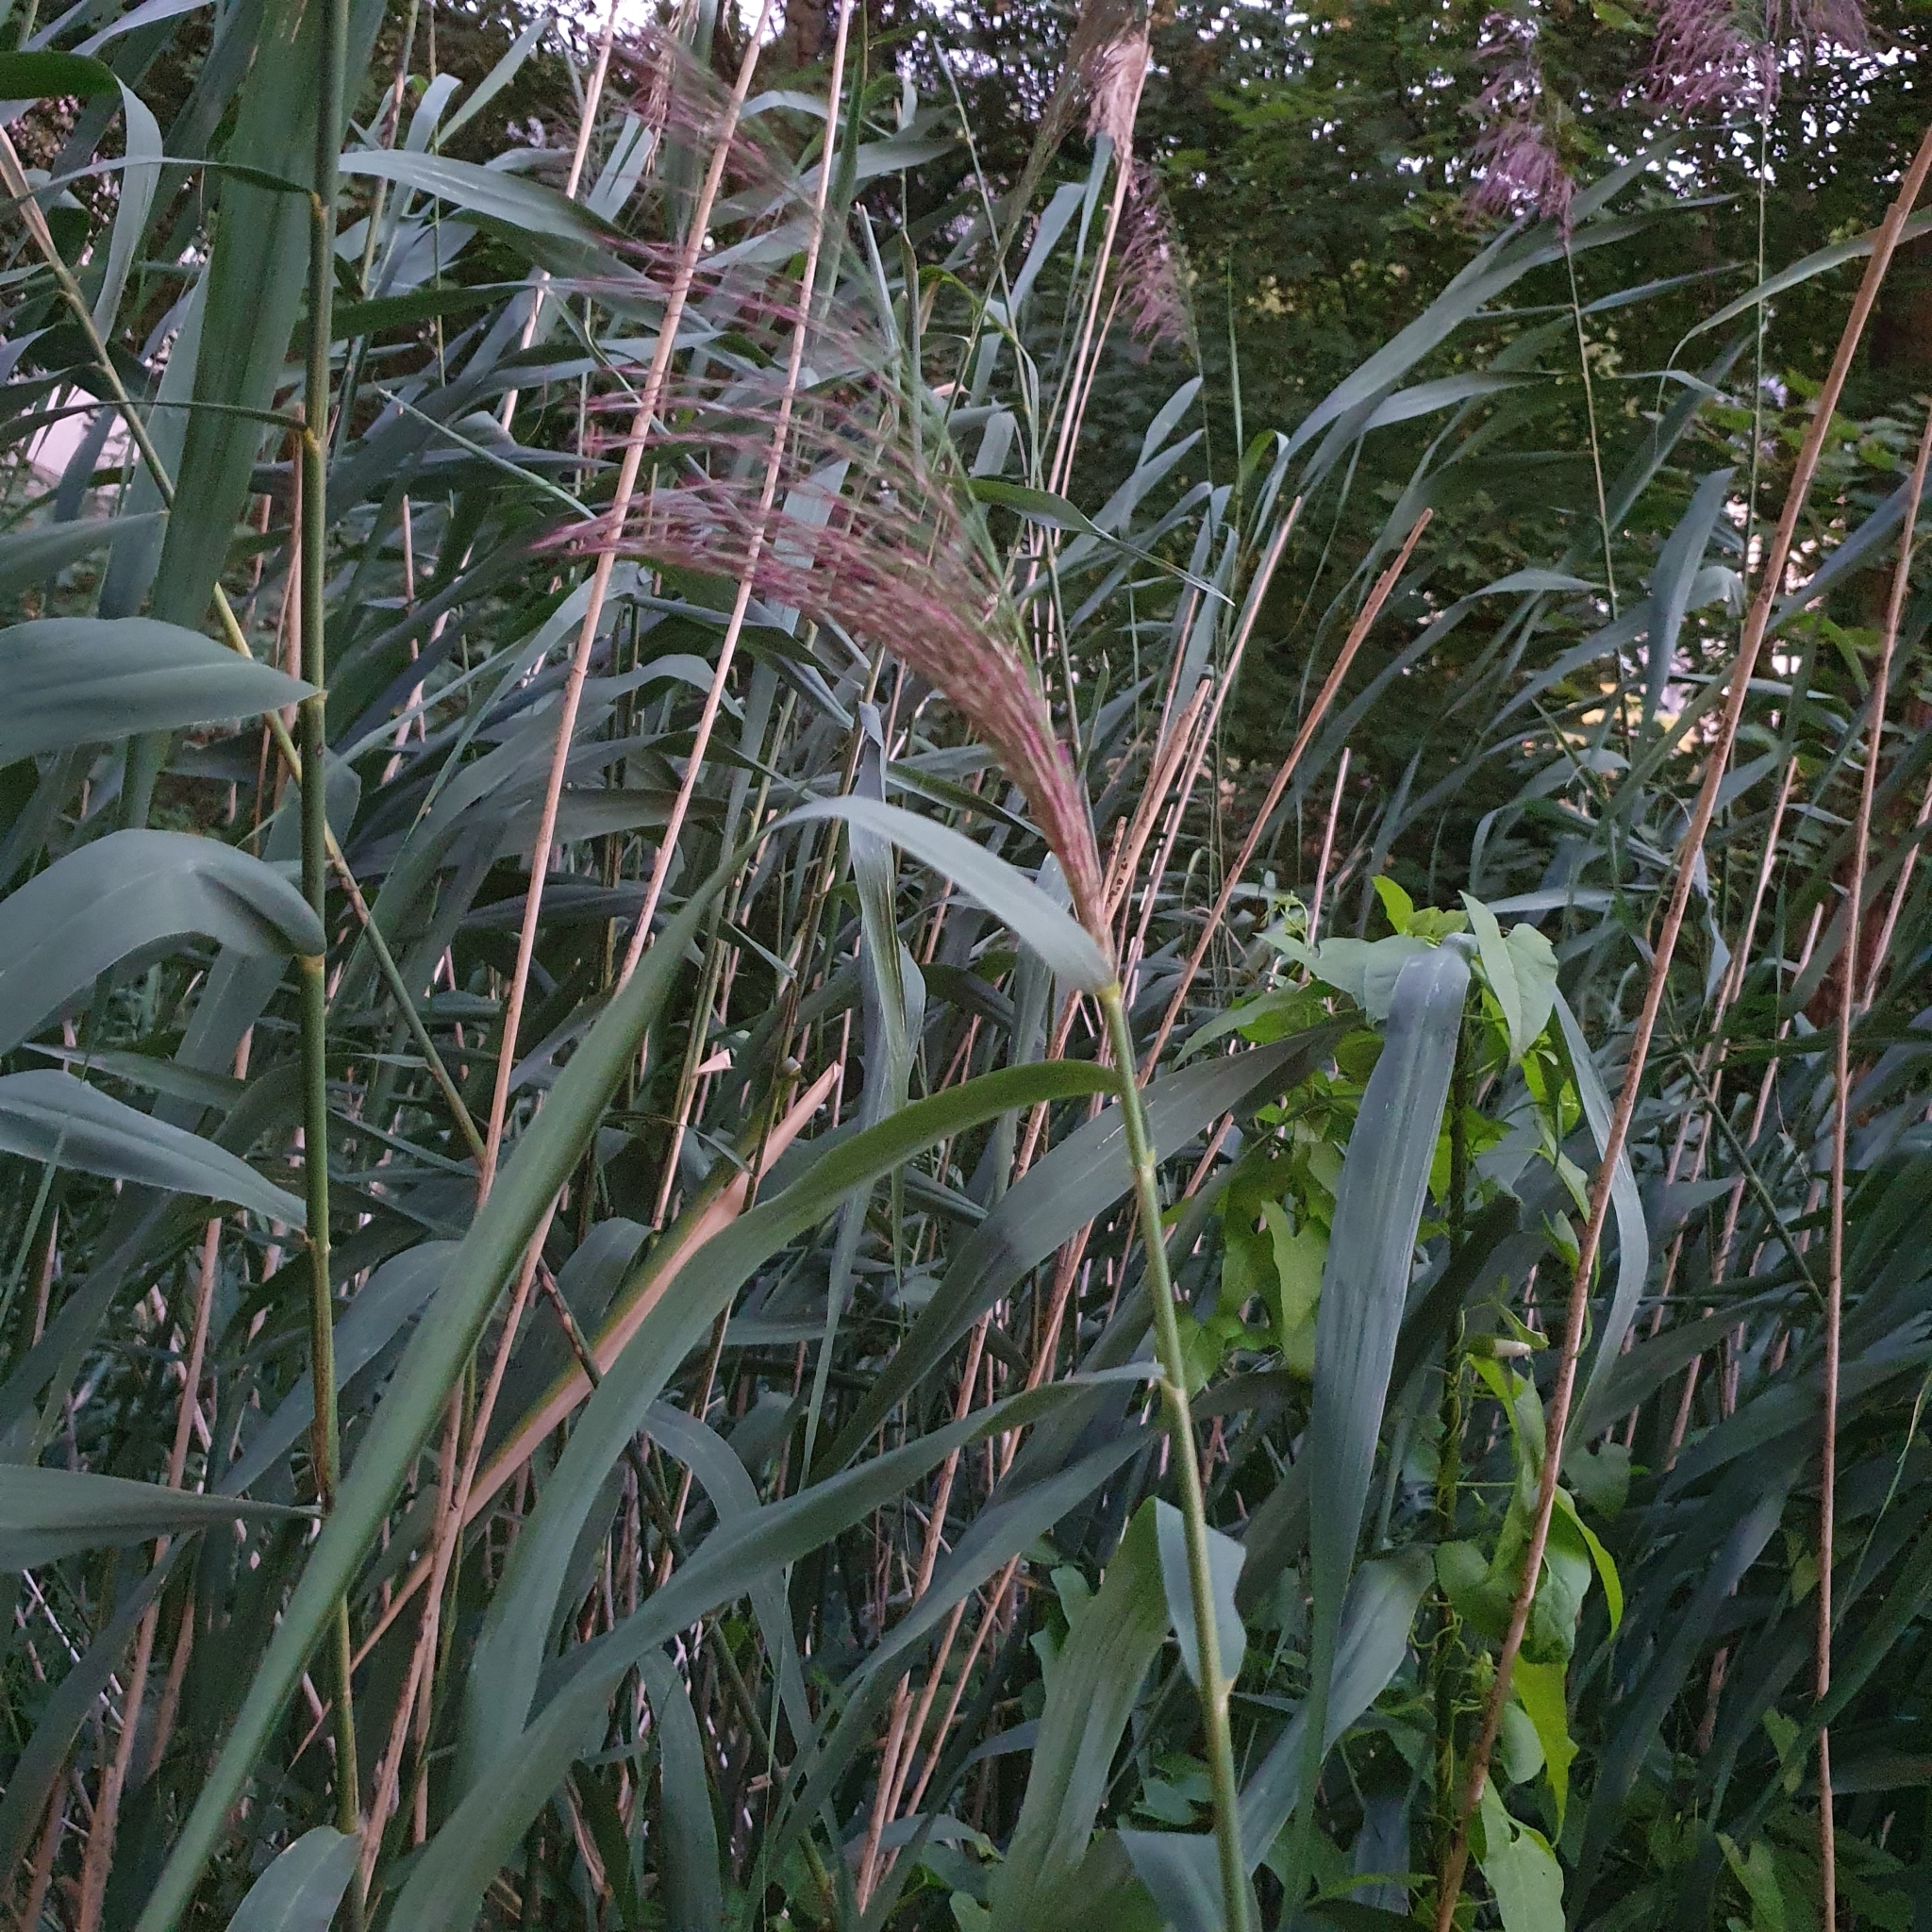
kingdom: Plantae
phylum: Tracheophyta
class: Liliopsida
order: Poales
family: Poaceae
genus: Phragmites
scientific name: Phragmites australis
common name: Common reed
